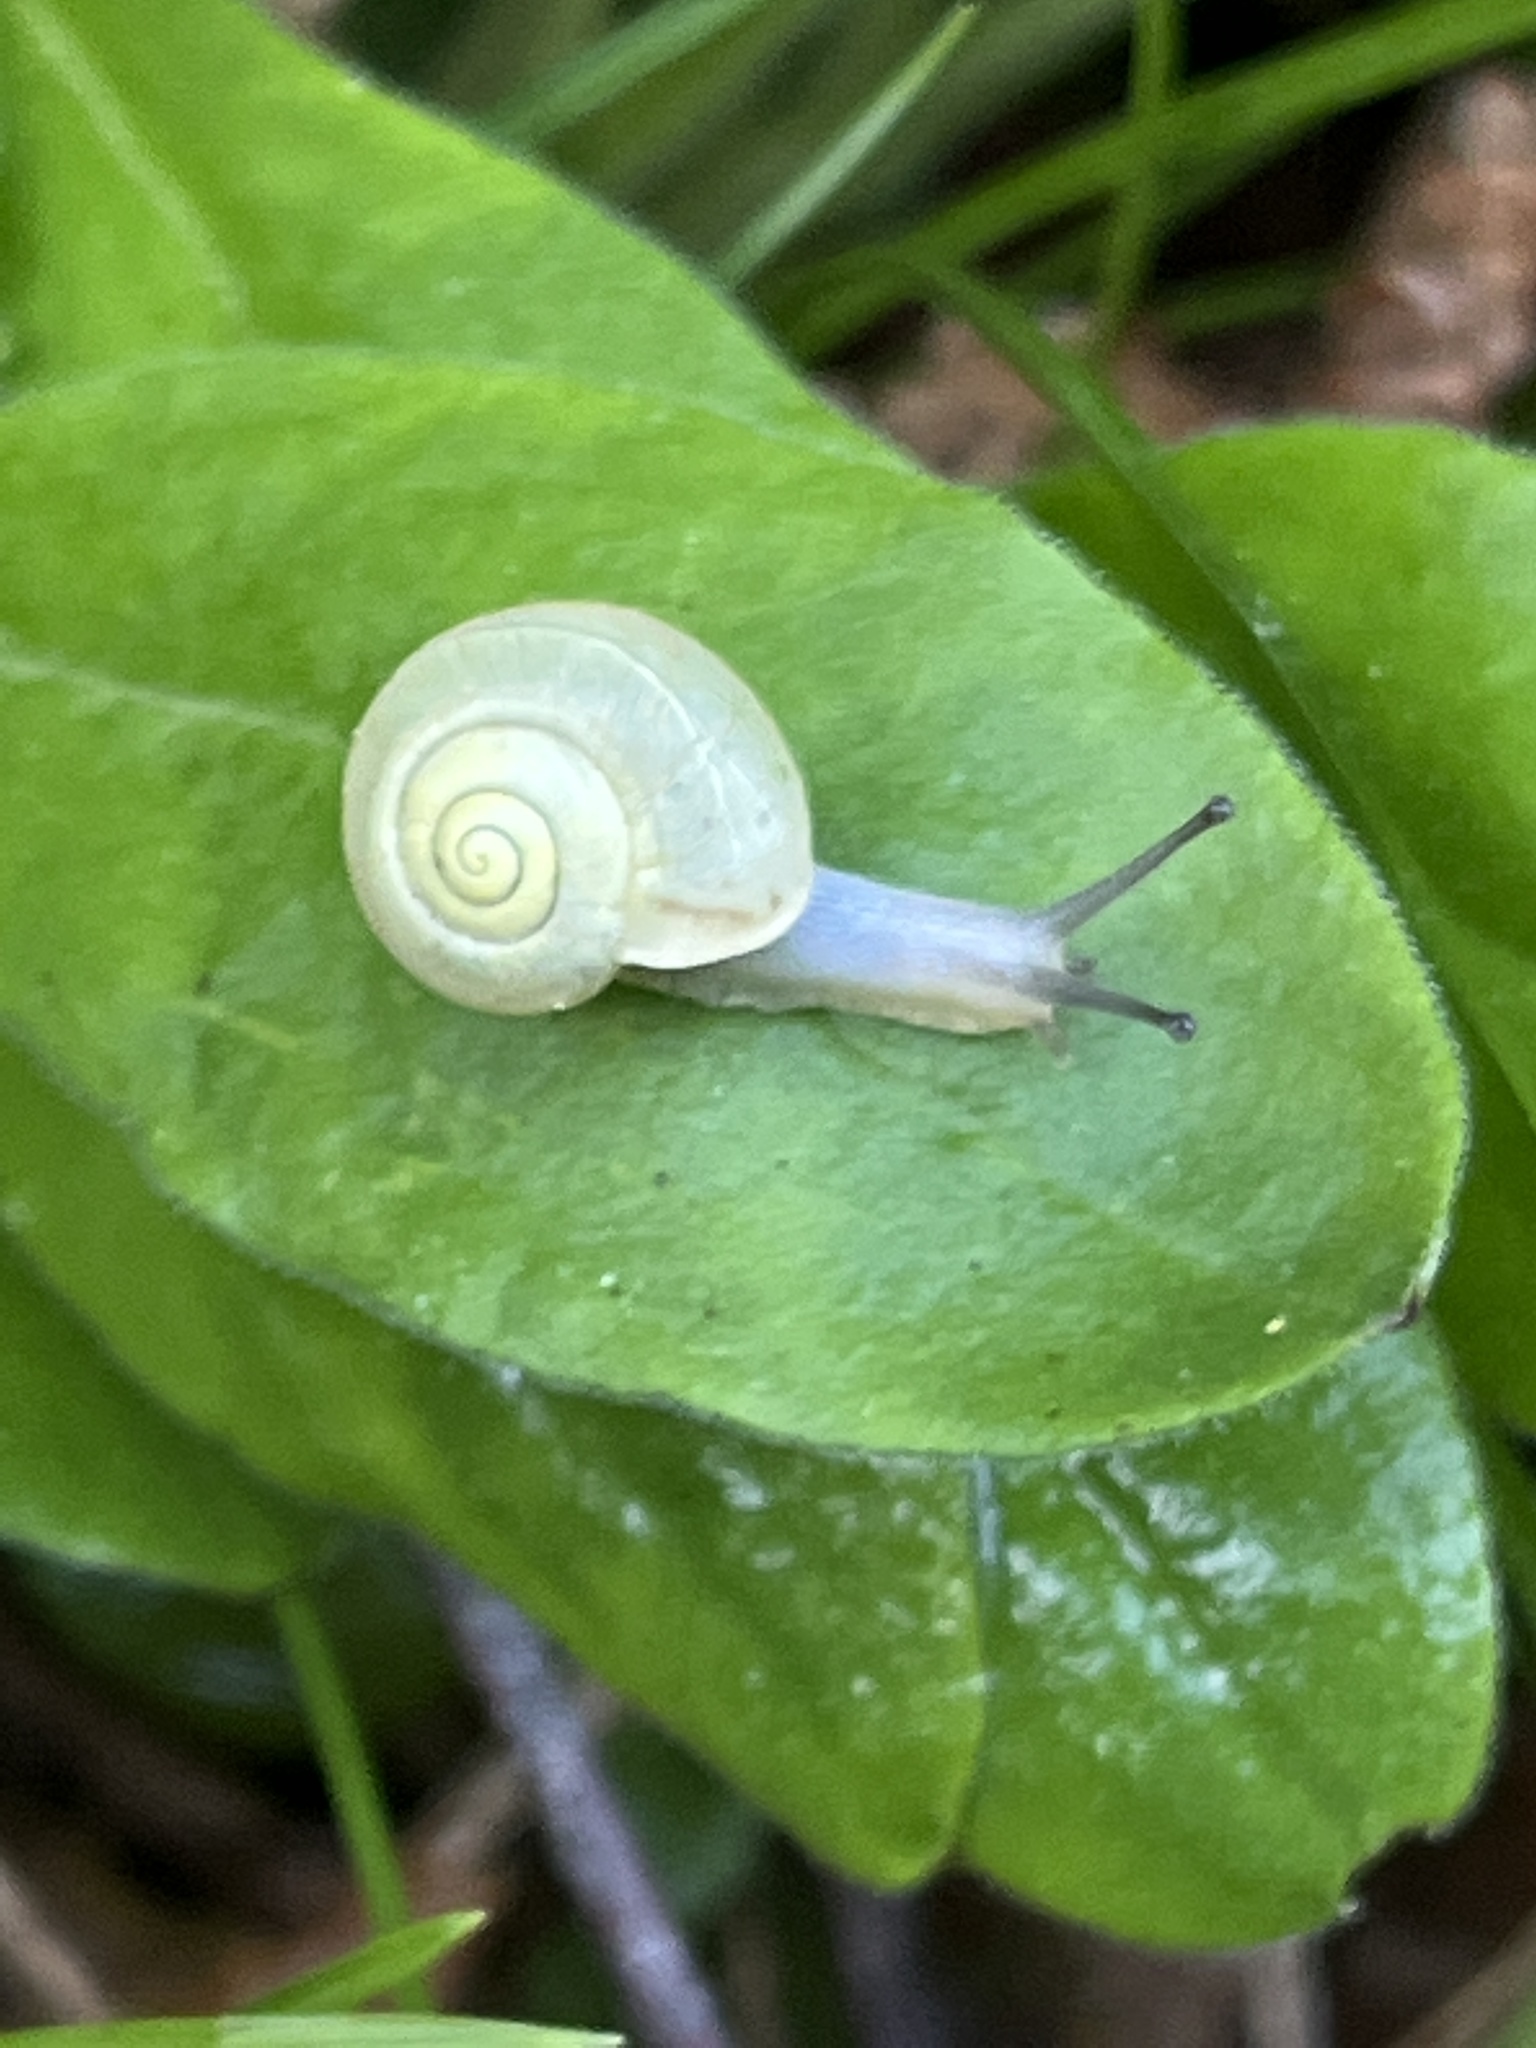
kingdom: Animalia
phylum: Mollusca
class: Gastropoda
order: Stylommatophora
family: Camaenidae
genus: Fruticicola
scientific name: Fruticicola fruticum
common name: Bush snail
